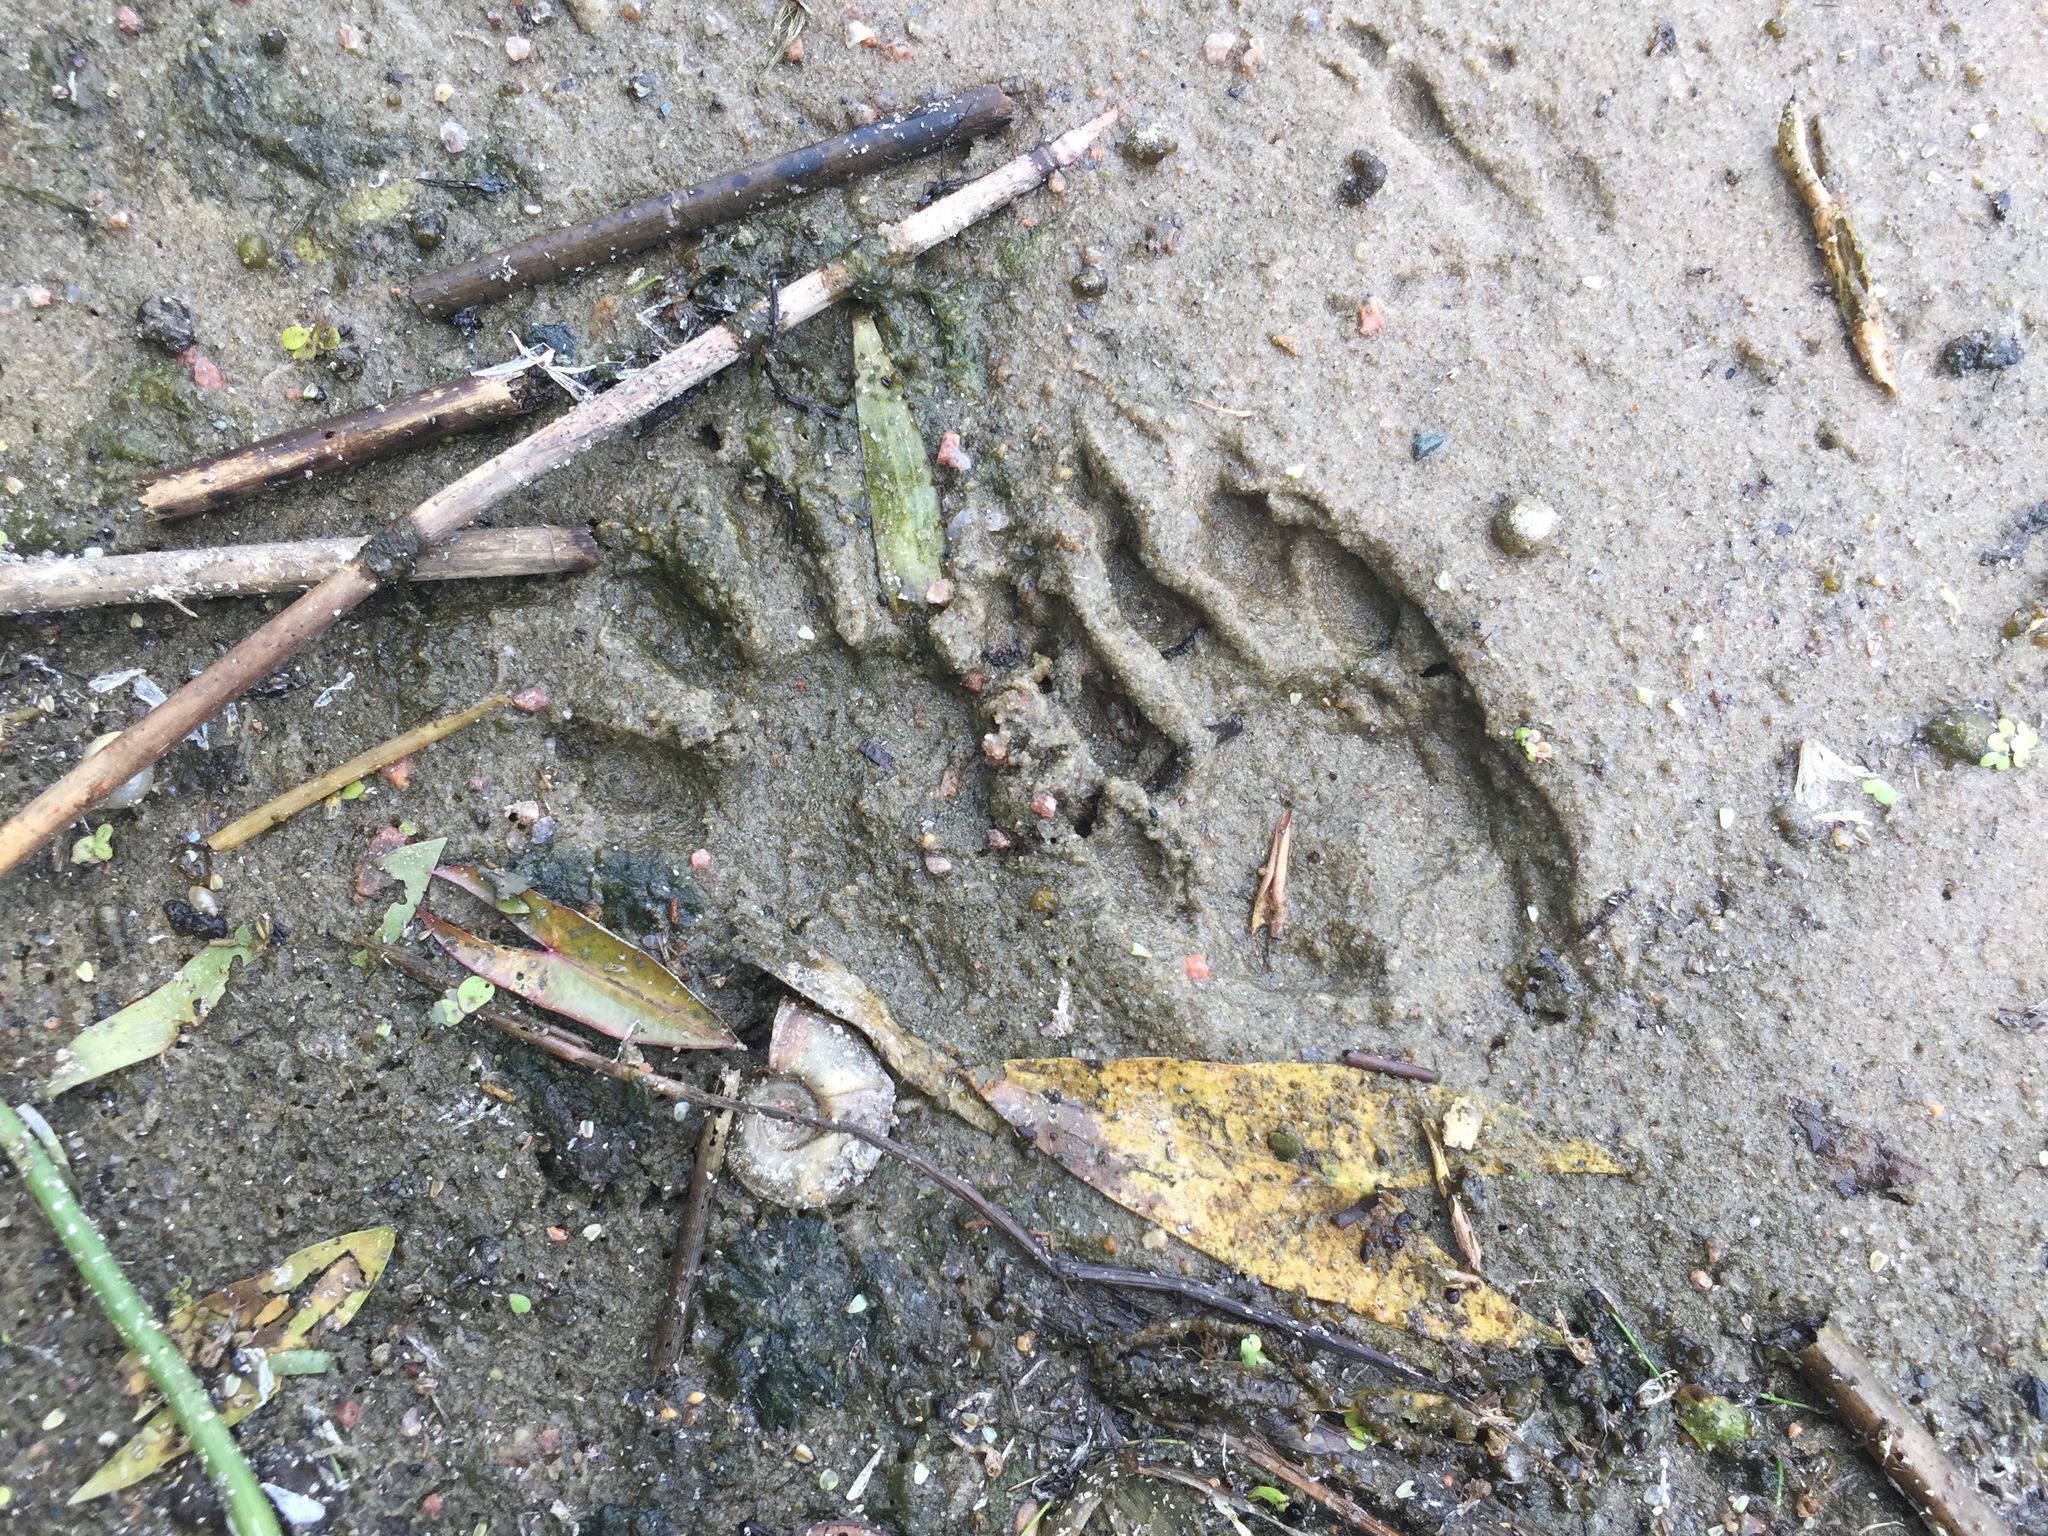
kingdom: Animalia
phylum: Chordata
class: Mammalia
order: Carnivora
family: Procyonidae
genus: Procyon
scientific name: Procyon lotor
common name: Raccoon
